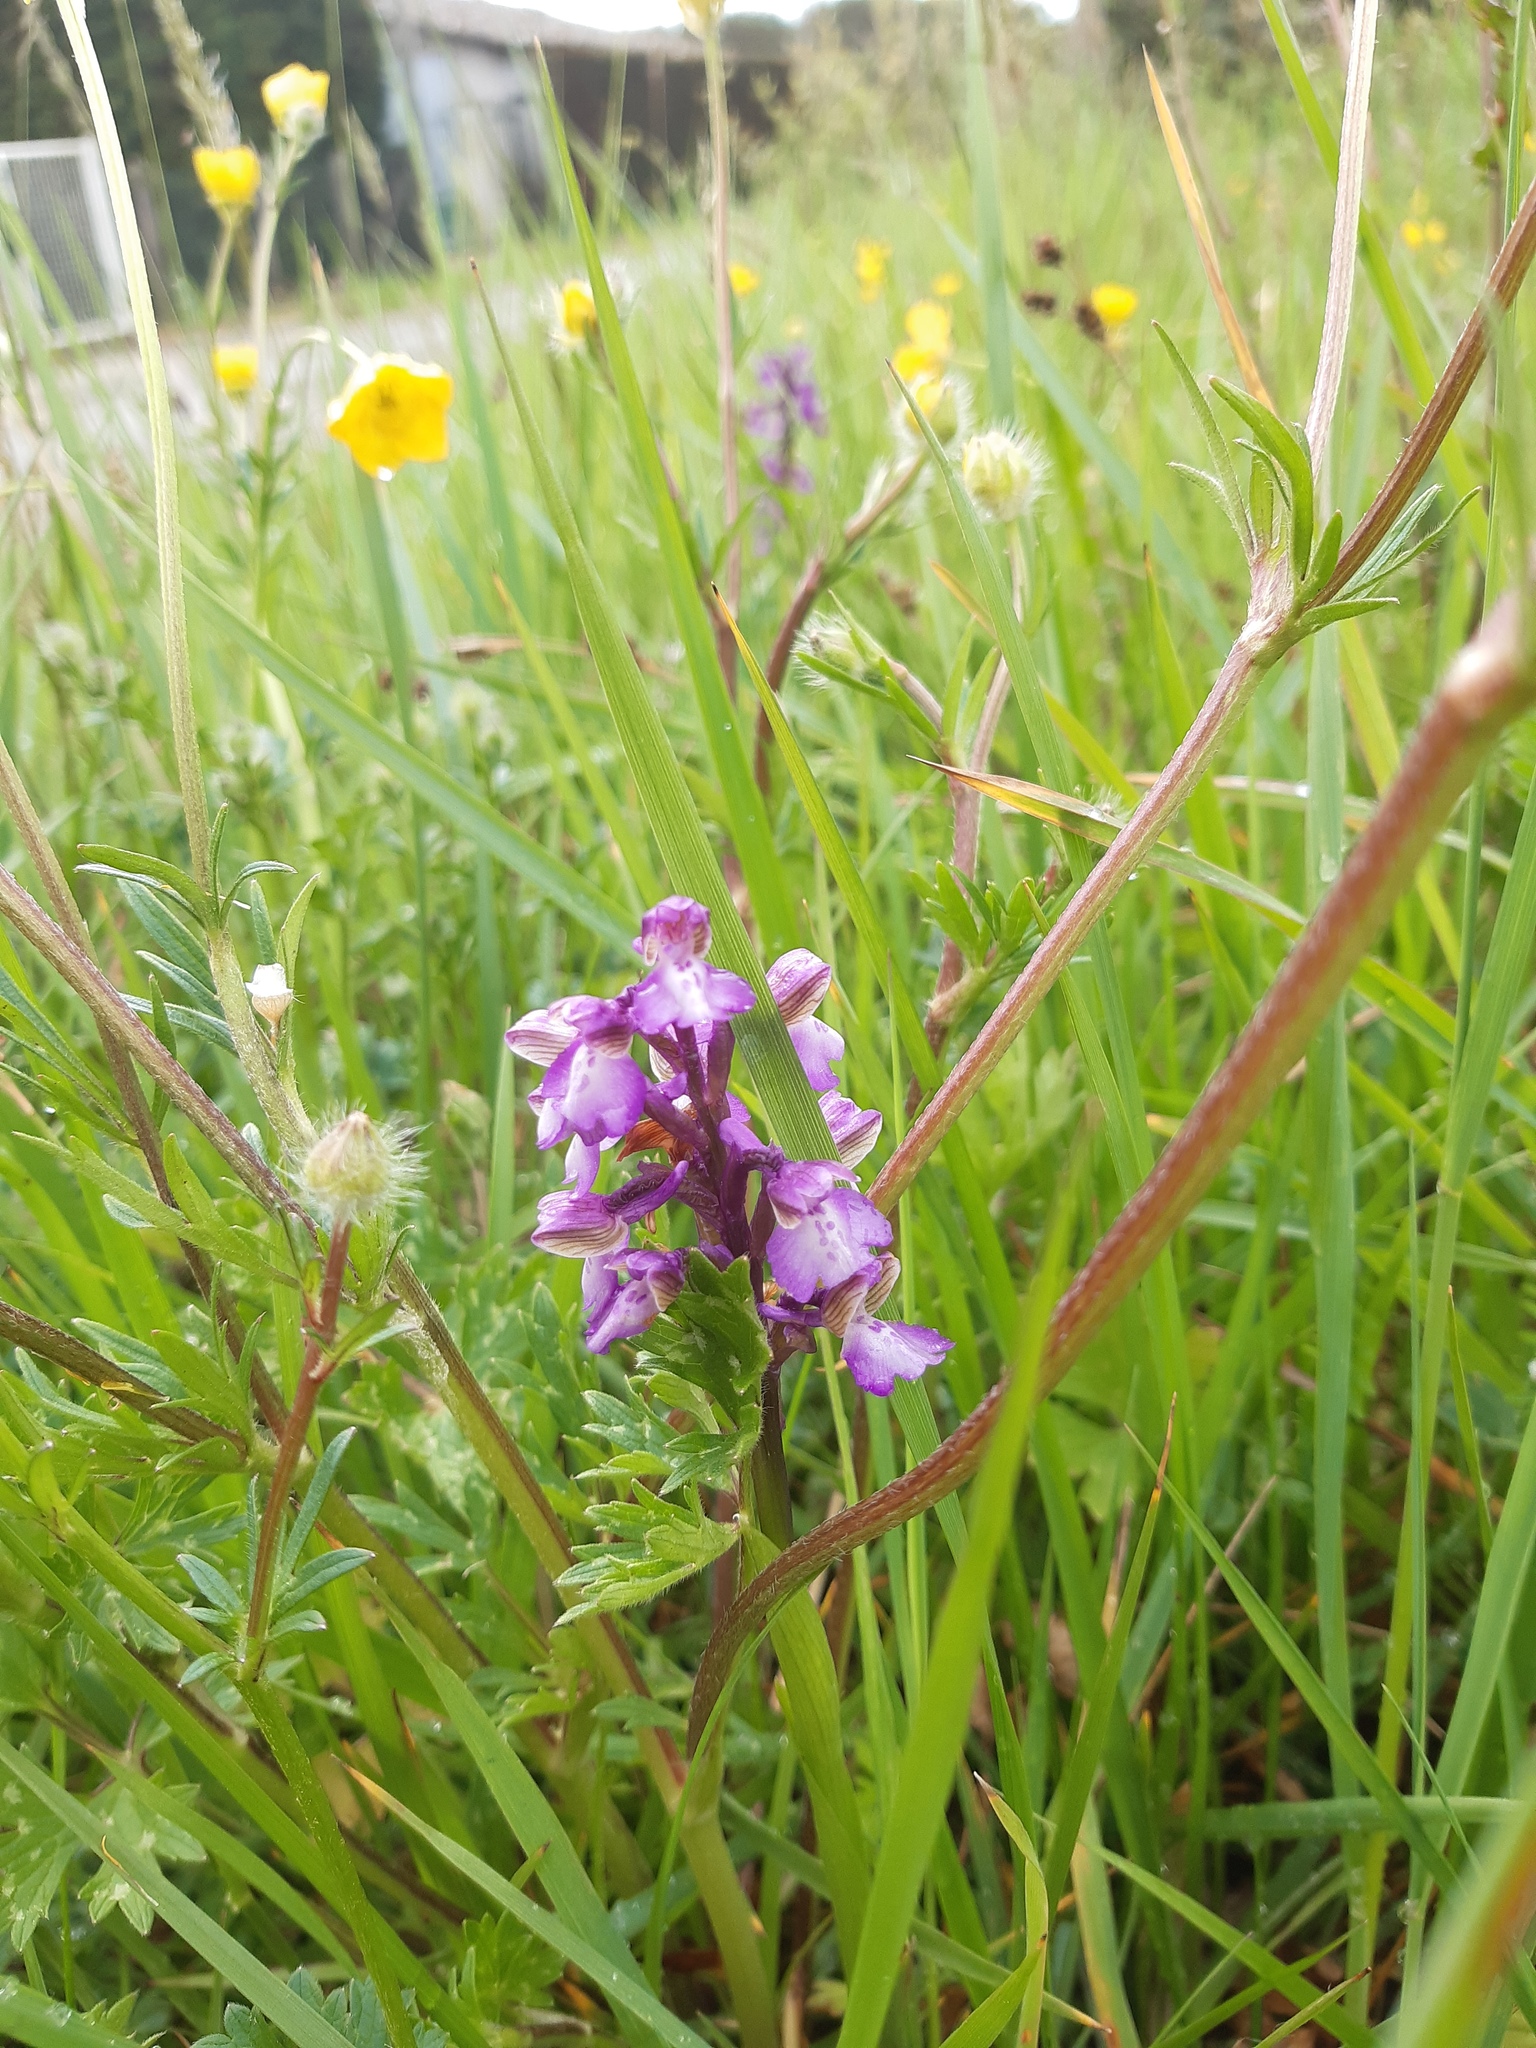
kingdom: Plantae
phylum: Tracheophyta
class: Liliopsida
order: Asparagales
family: Orchidaceae
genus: Anacamptis
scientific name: Anacamptis morio
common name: Green-winged orchid
